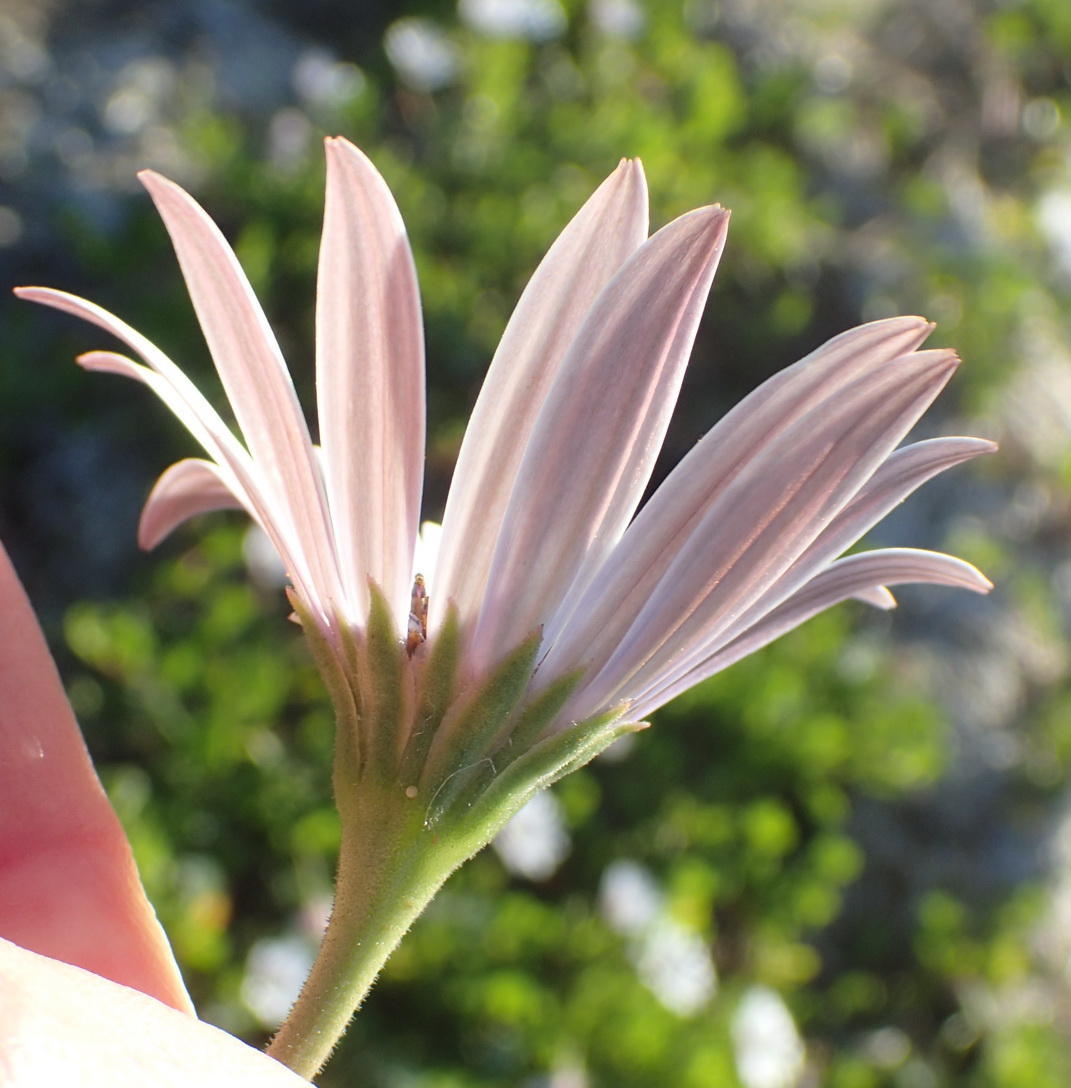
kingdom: Plantae
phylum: Tracheophyta
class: Magnoliopsida
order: Asterales
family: Asteraceae
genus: Dimorphotheca
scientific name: Dimorphotheca fruticosa
